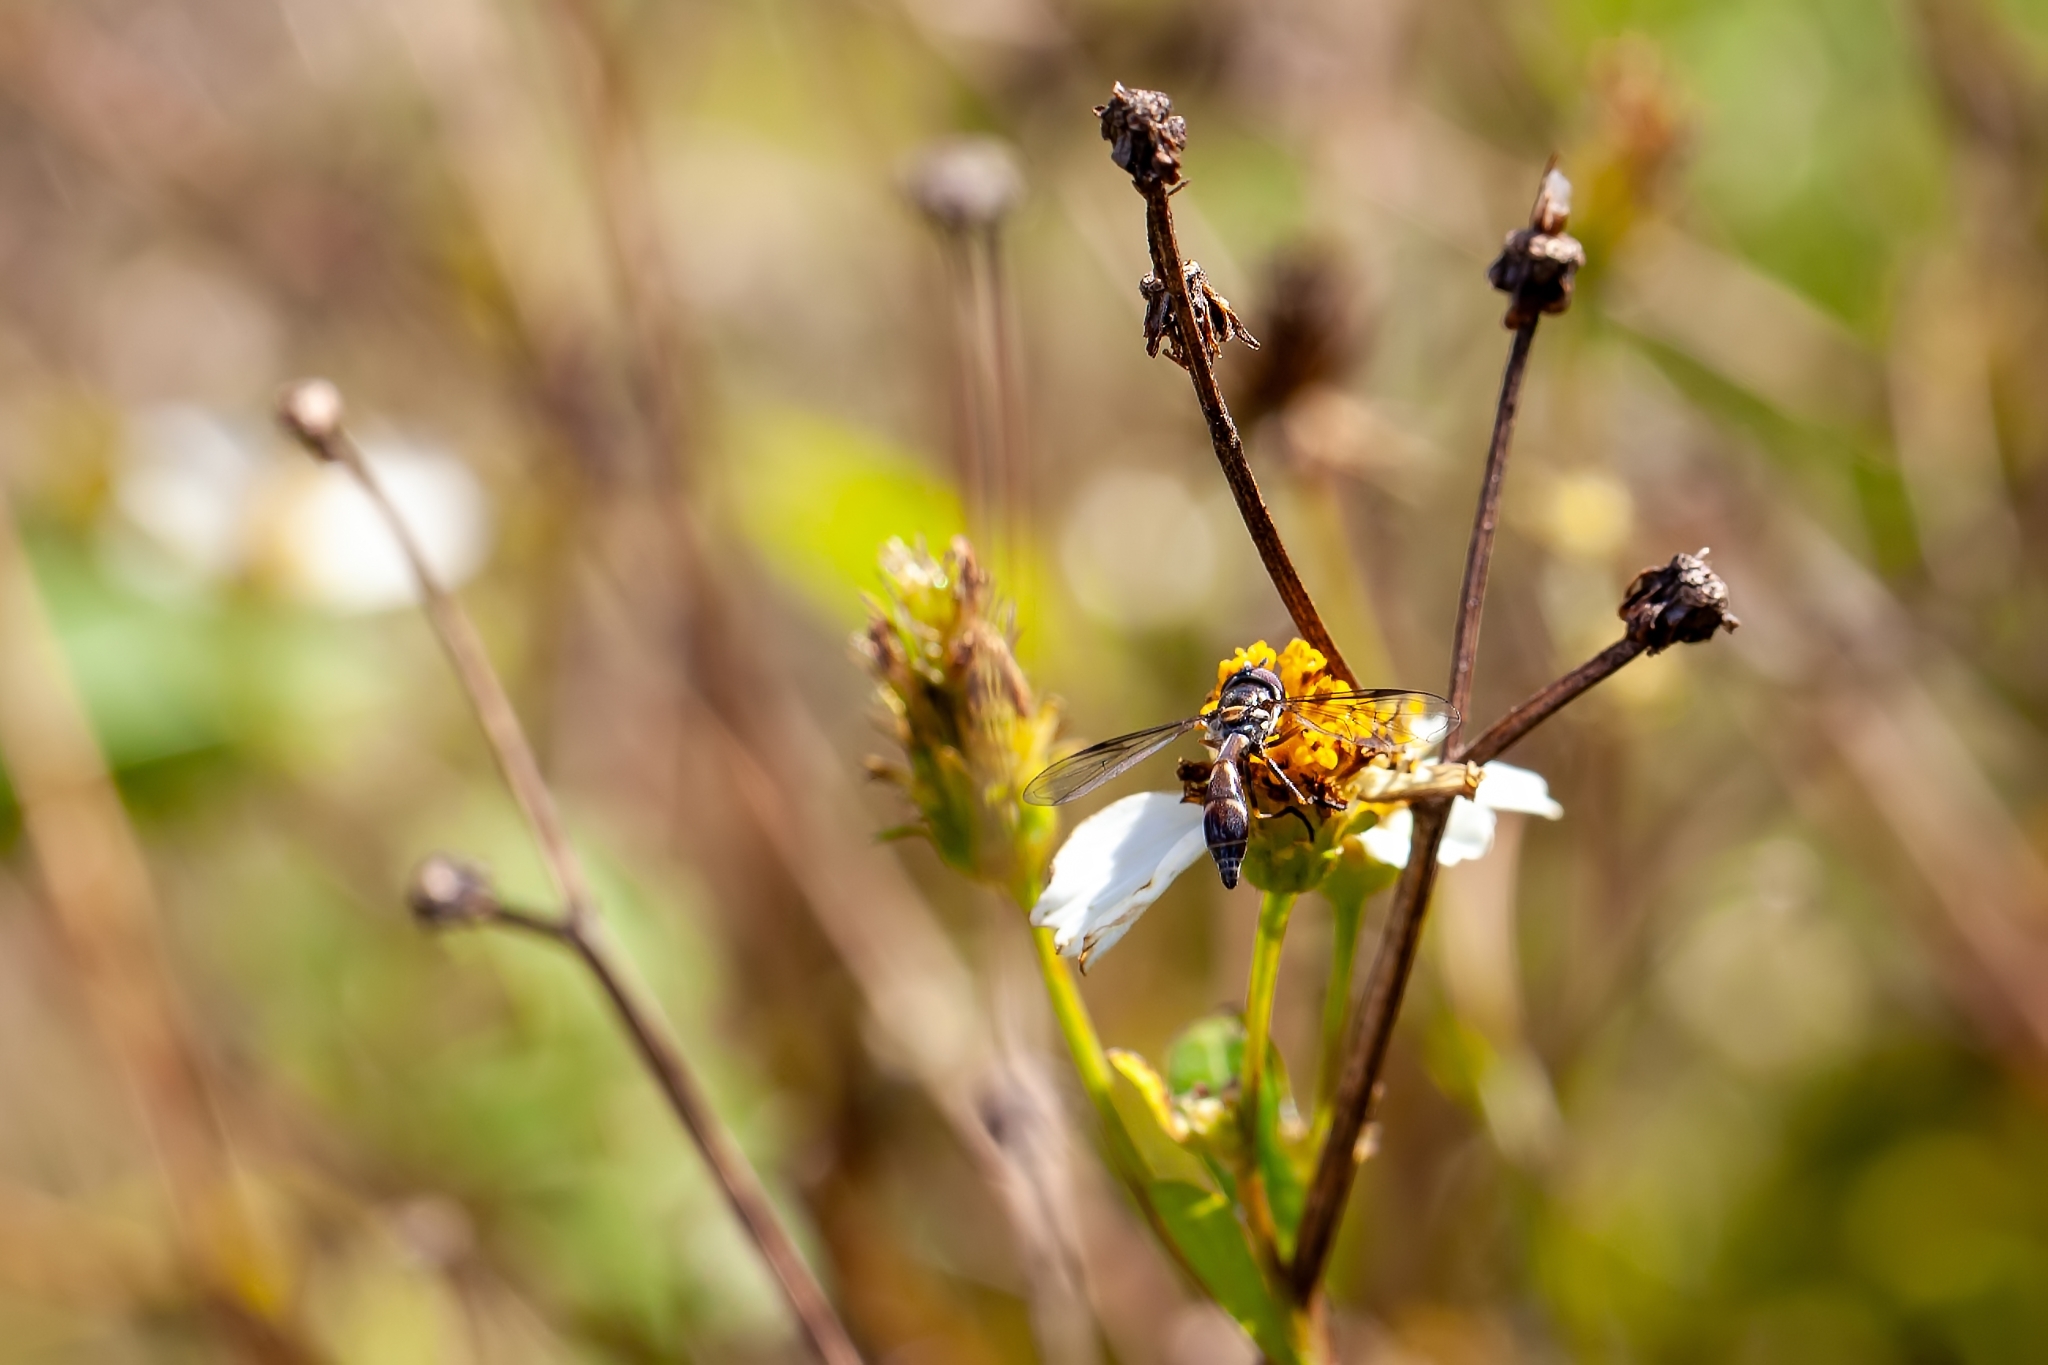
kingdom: Animalia
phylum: Arthropoda
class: Insecta
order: Diptera
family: Syrphidae
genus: Dioprosopa
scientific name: Dioprosopa clavatus
